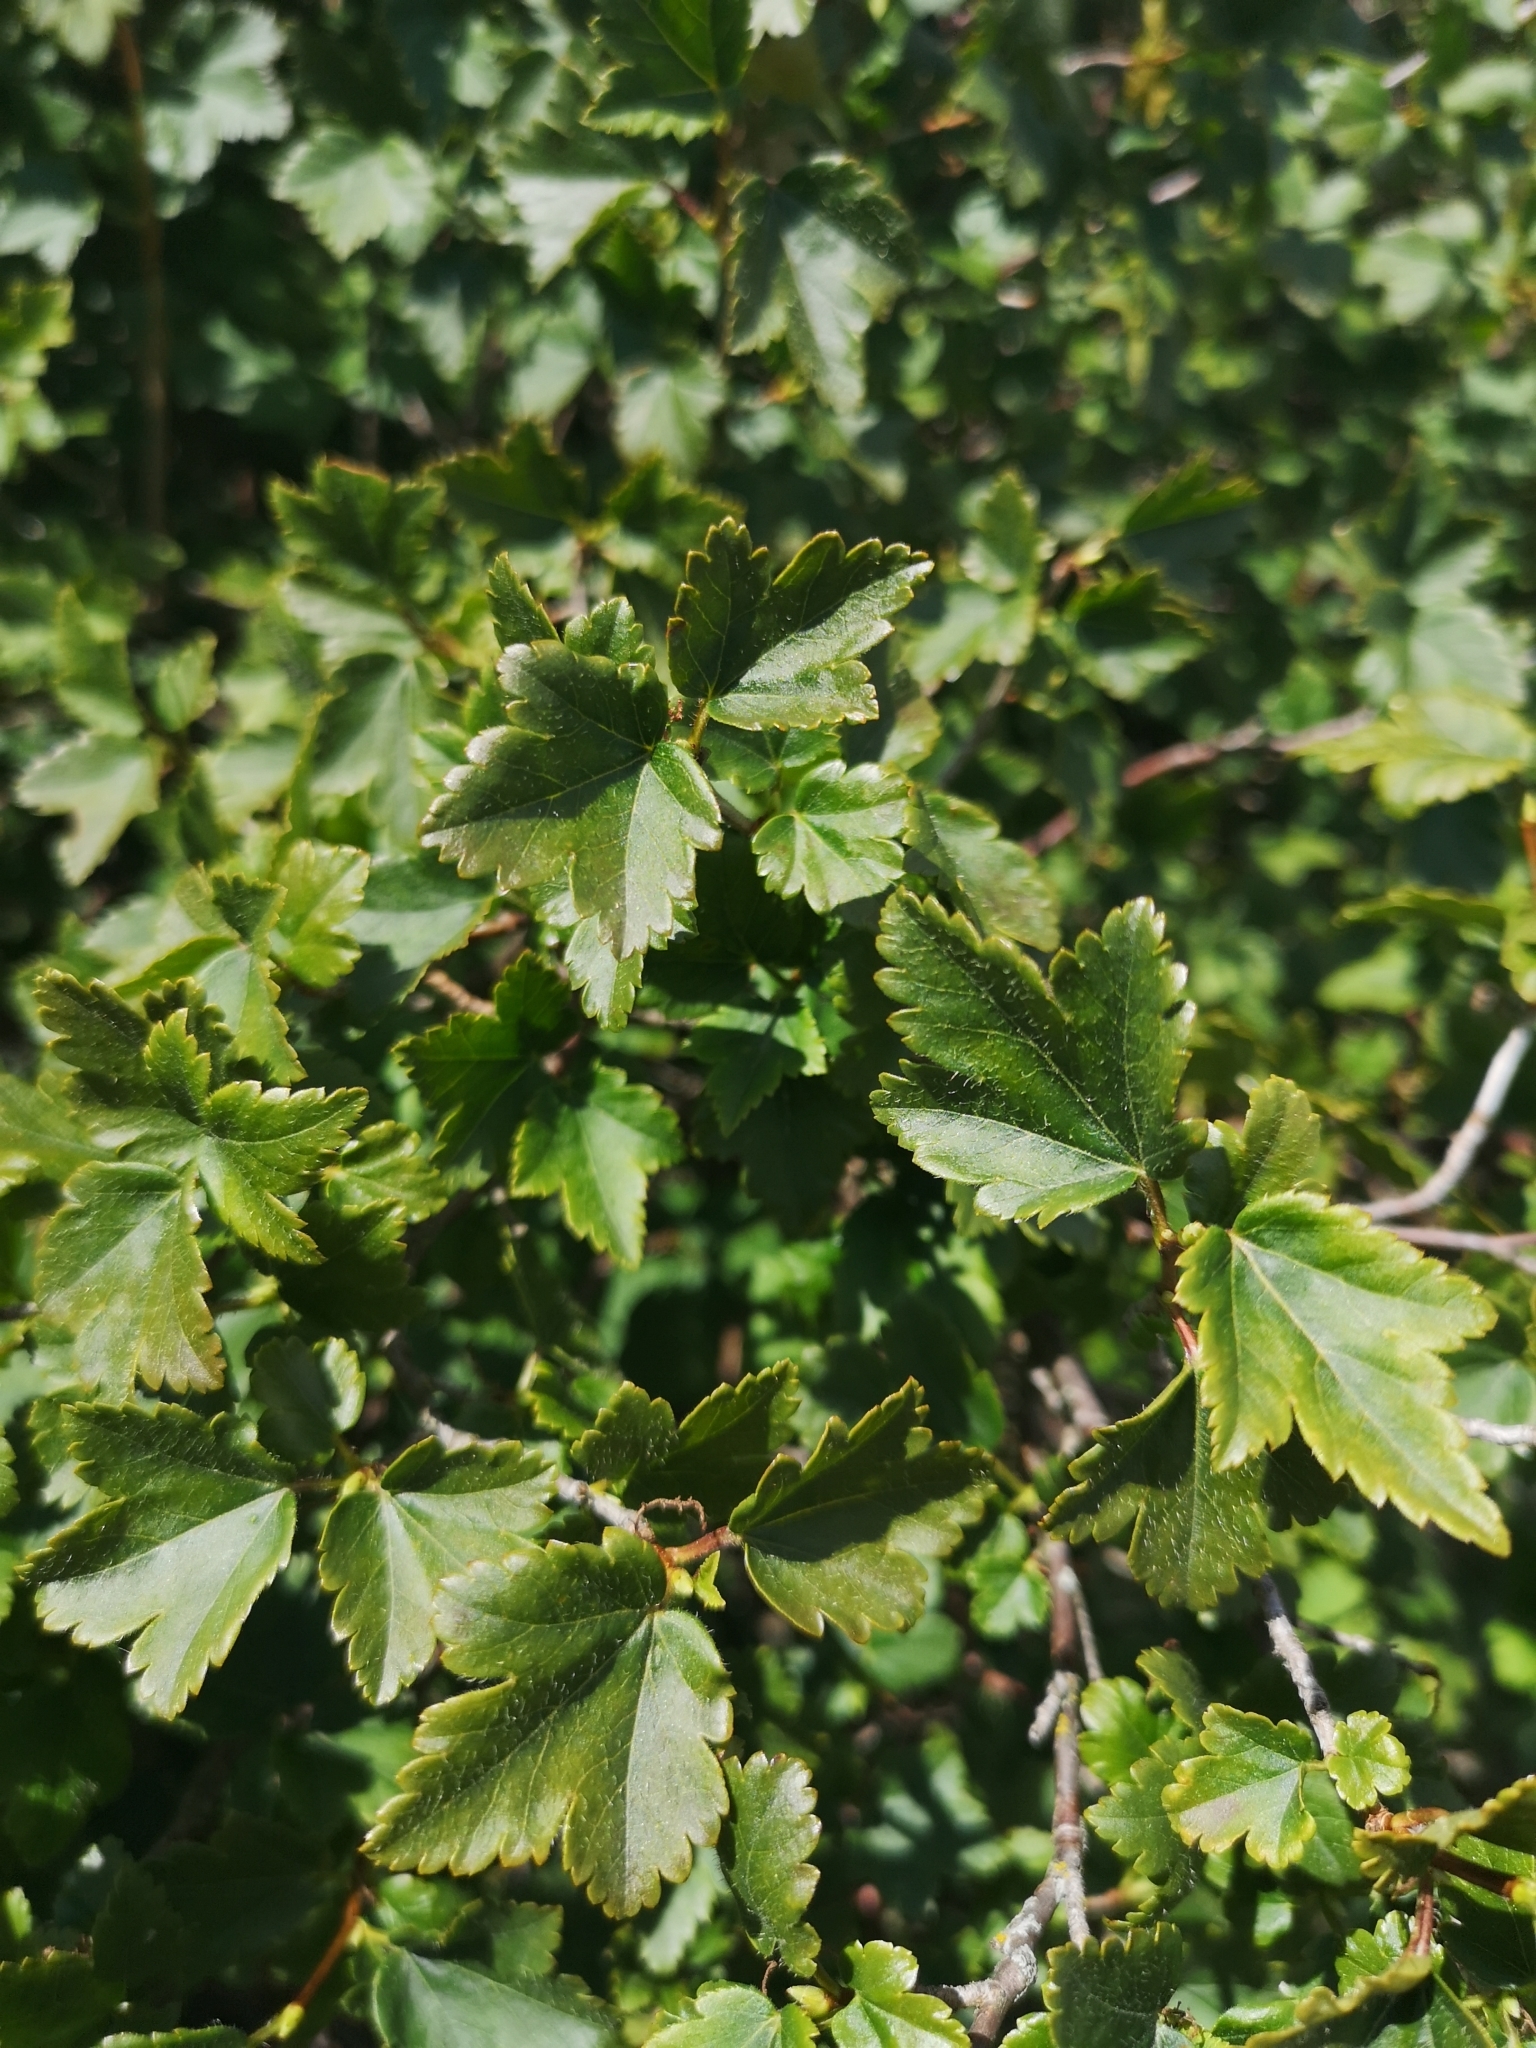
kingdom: Plantae
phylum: Tracheophyta
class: Magnoliopsida
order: Saxifragales
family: Grossulariaceae
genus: Ribes
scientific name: Ribes alpinum
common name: Alpine currant
